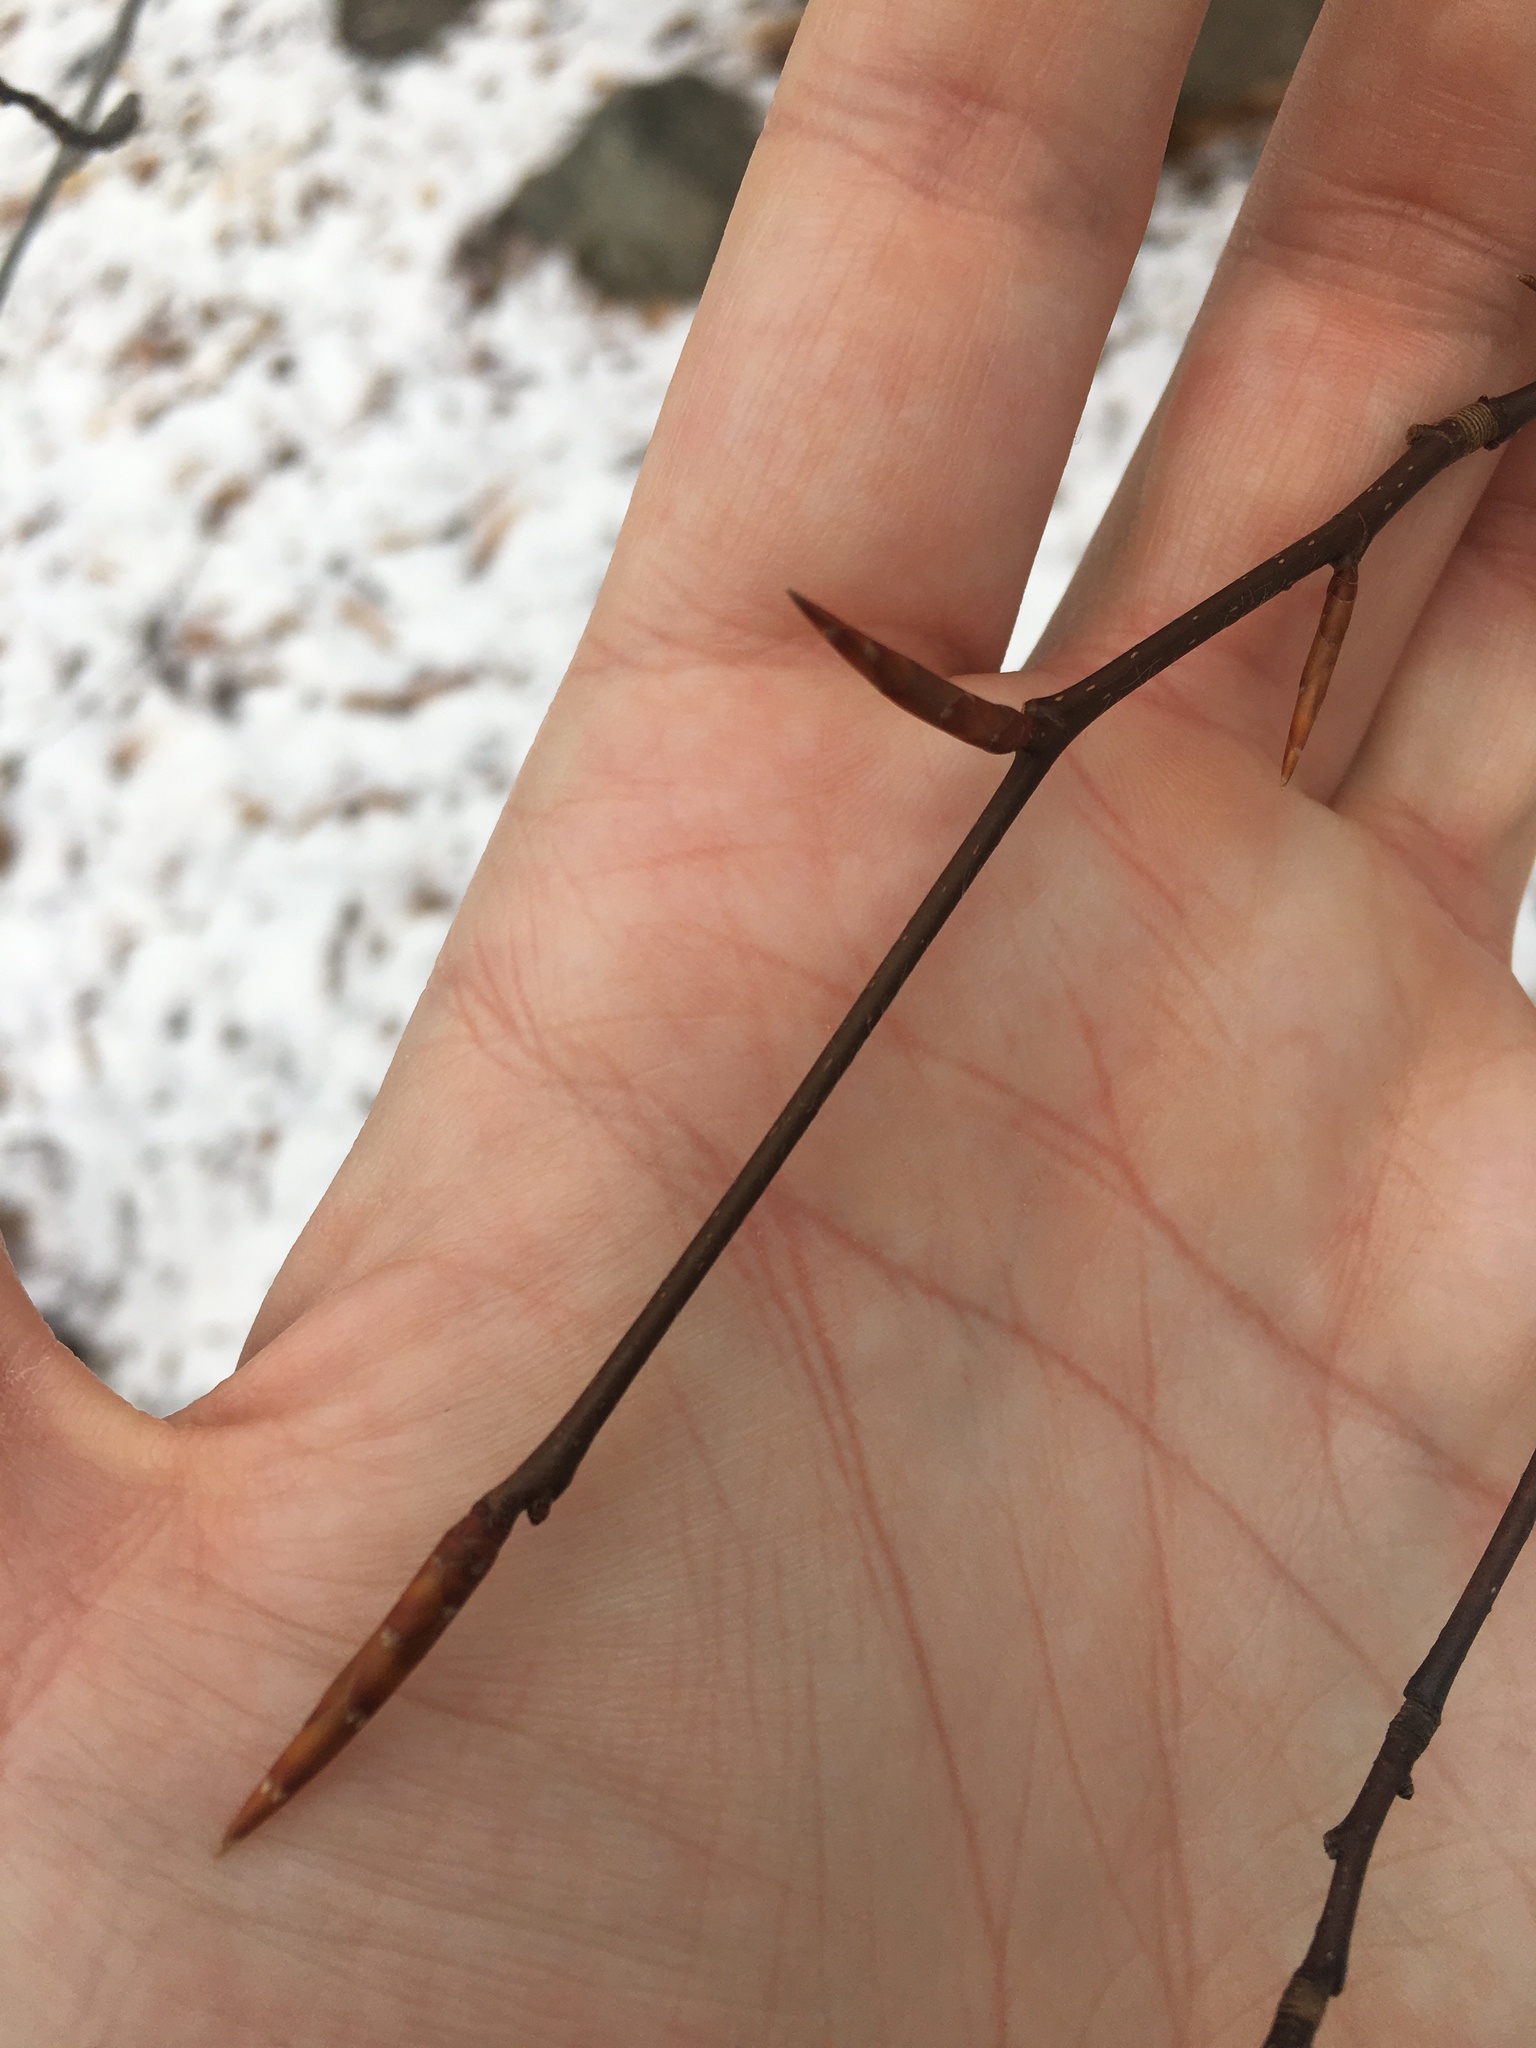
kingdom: Plantae
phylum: Tracheophyta
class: Magnoliopsida
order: Fagales
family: Fagaceae
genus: Fagus
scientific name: Fagus grandifolia
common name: American beech
